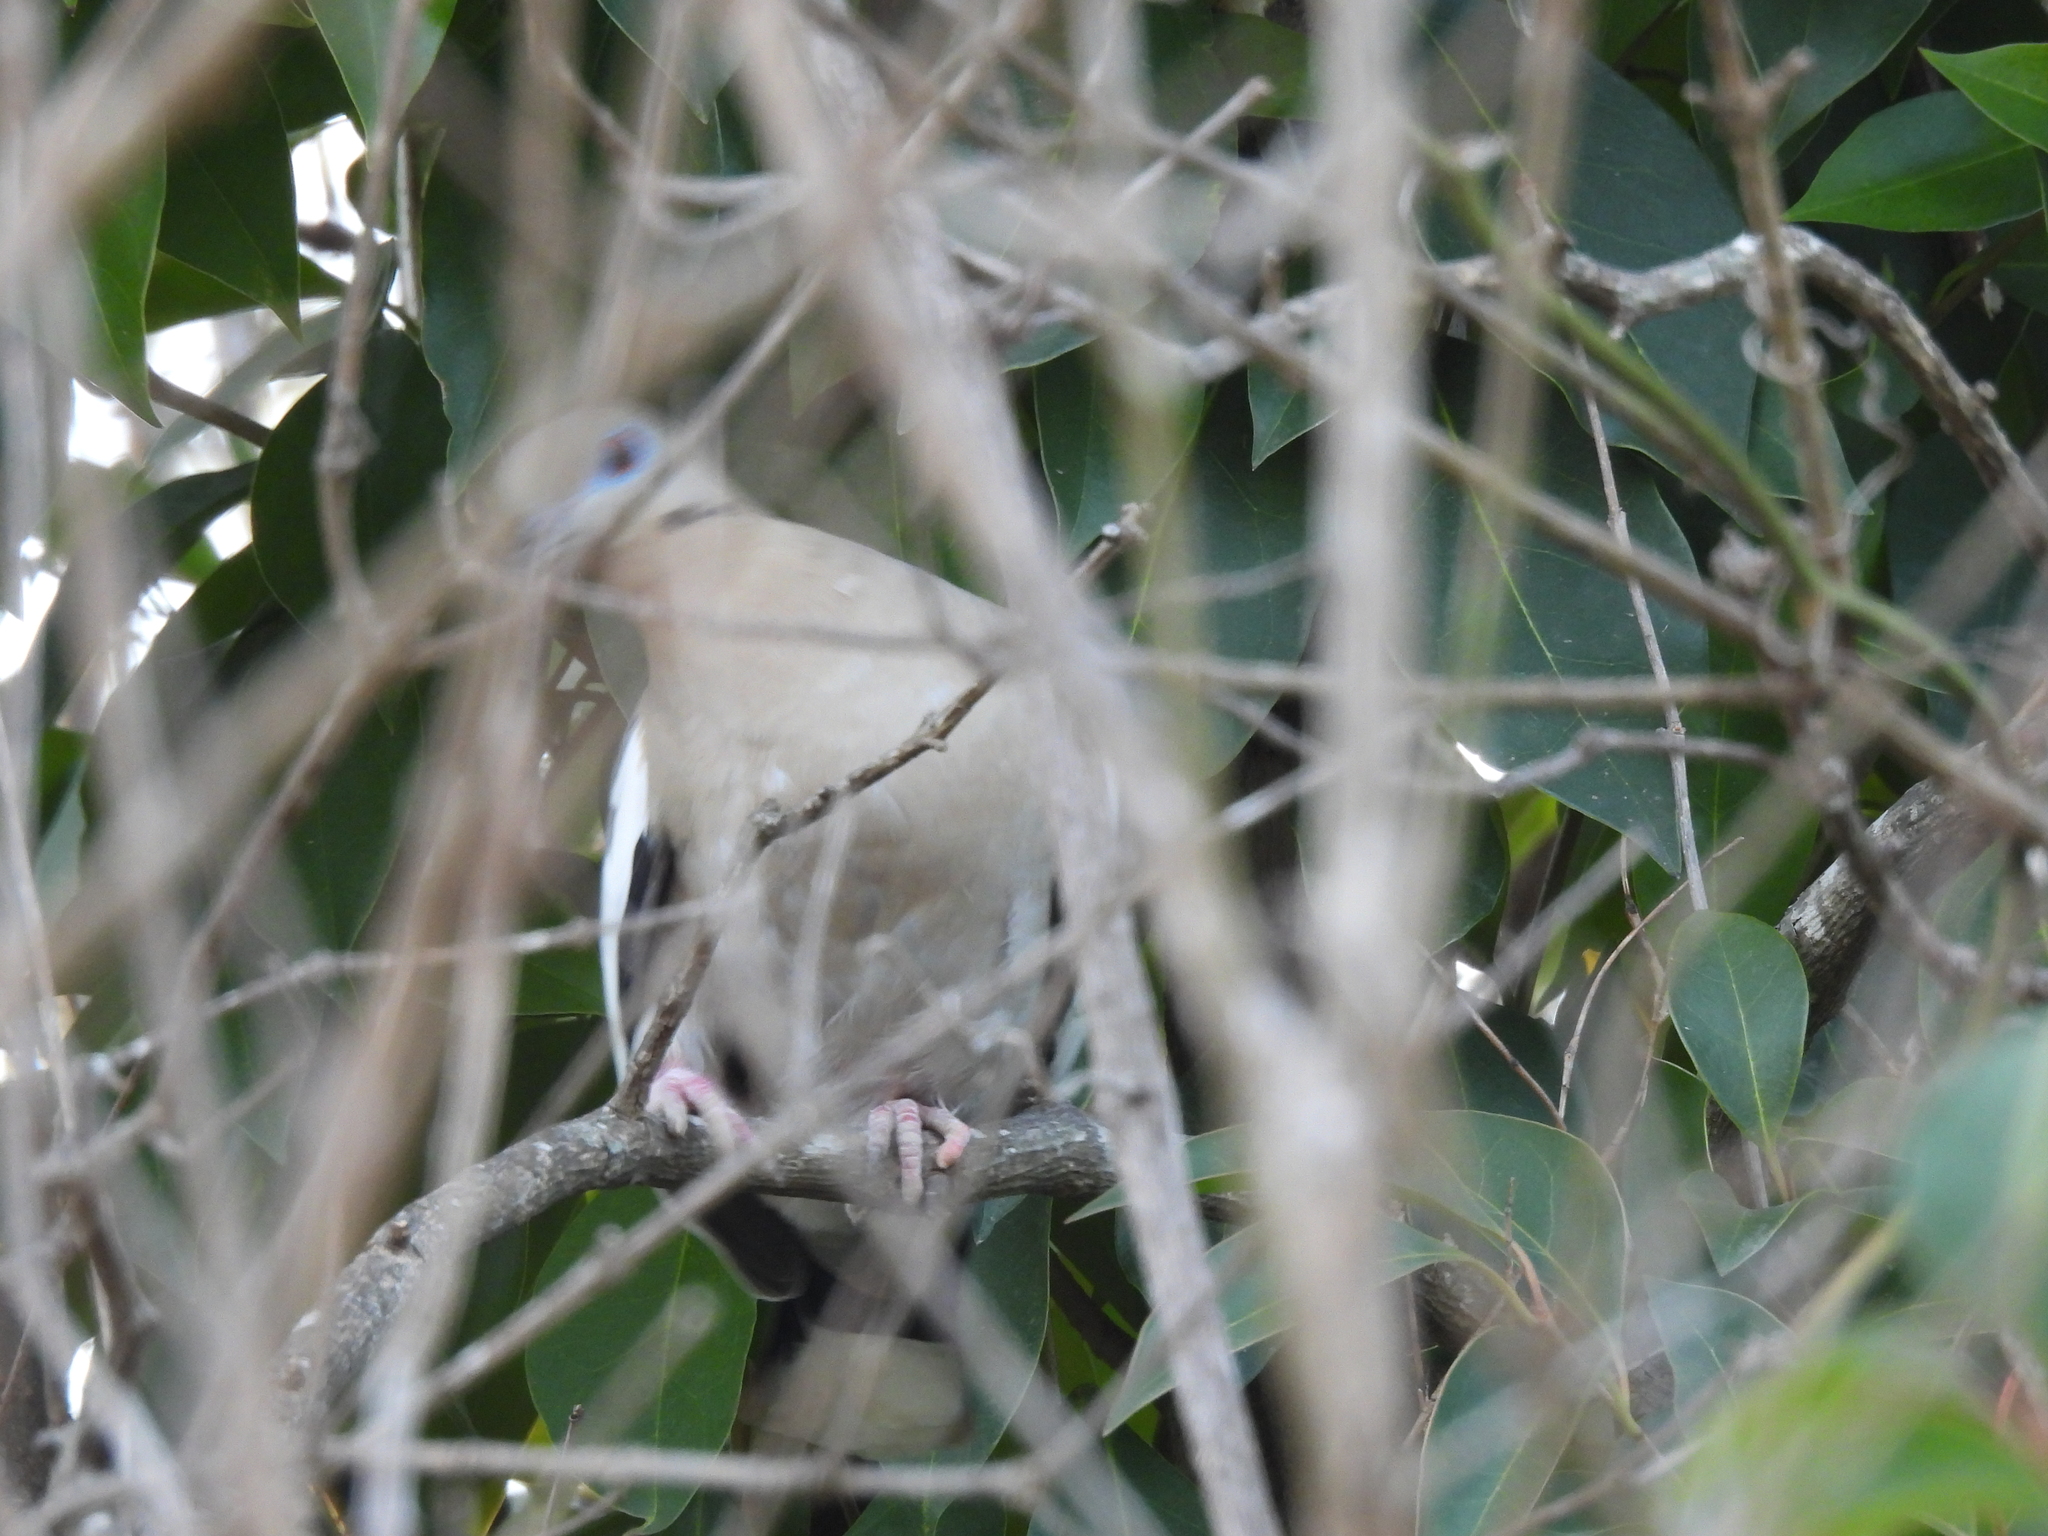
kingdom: Animalia
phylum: Chordata
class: Aves
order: Columbiformes
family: Columbidae
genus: Zenaida
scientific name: Zenaida asiatica
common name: White-winged dove
